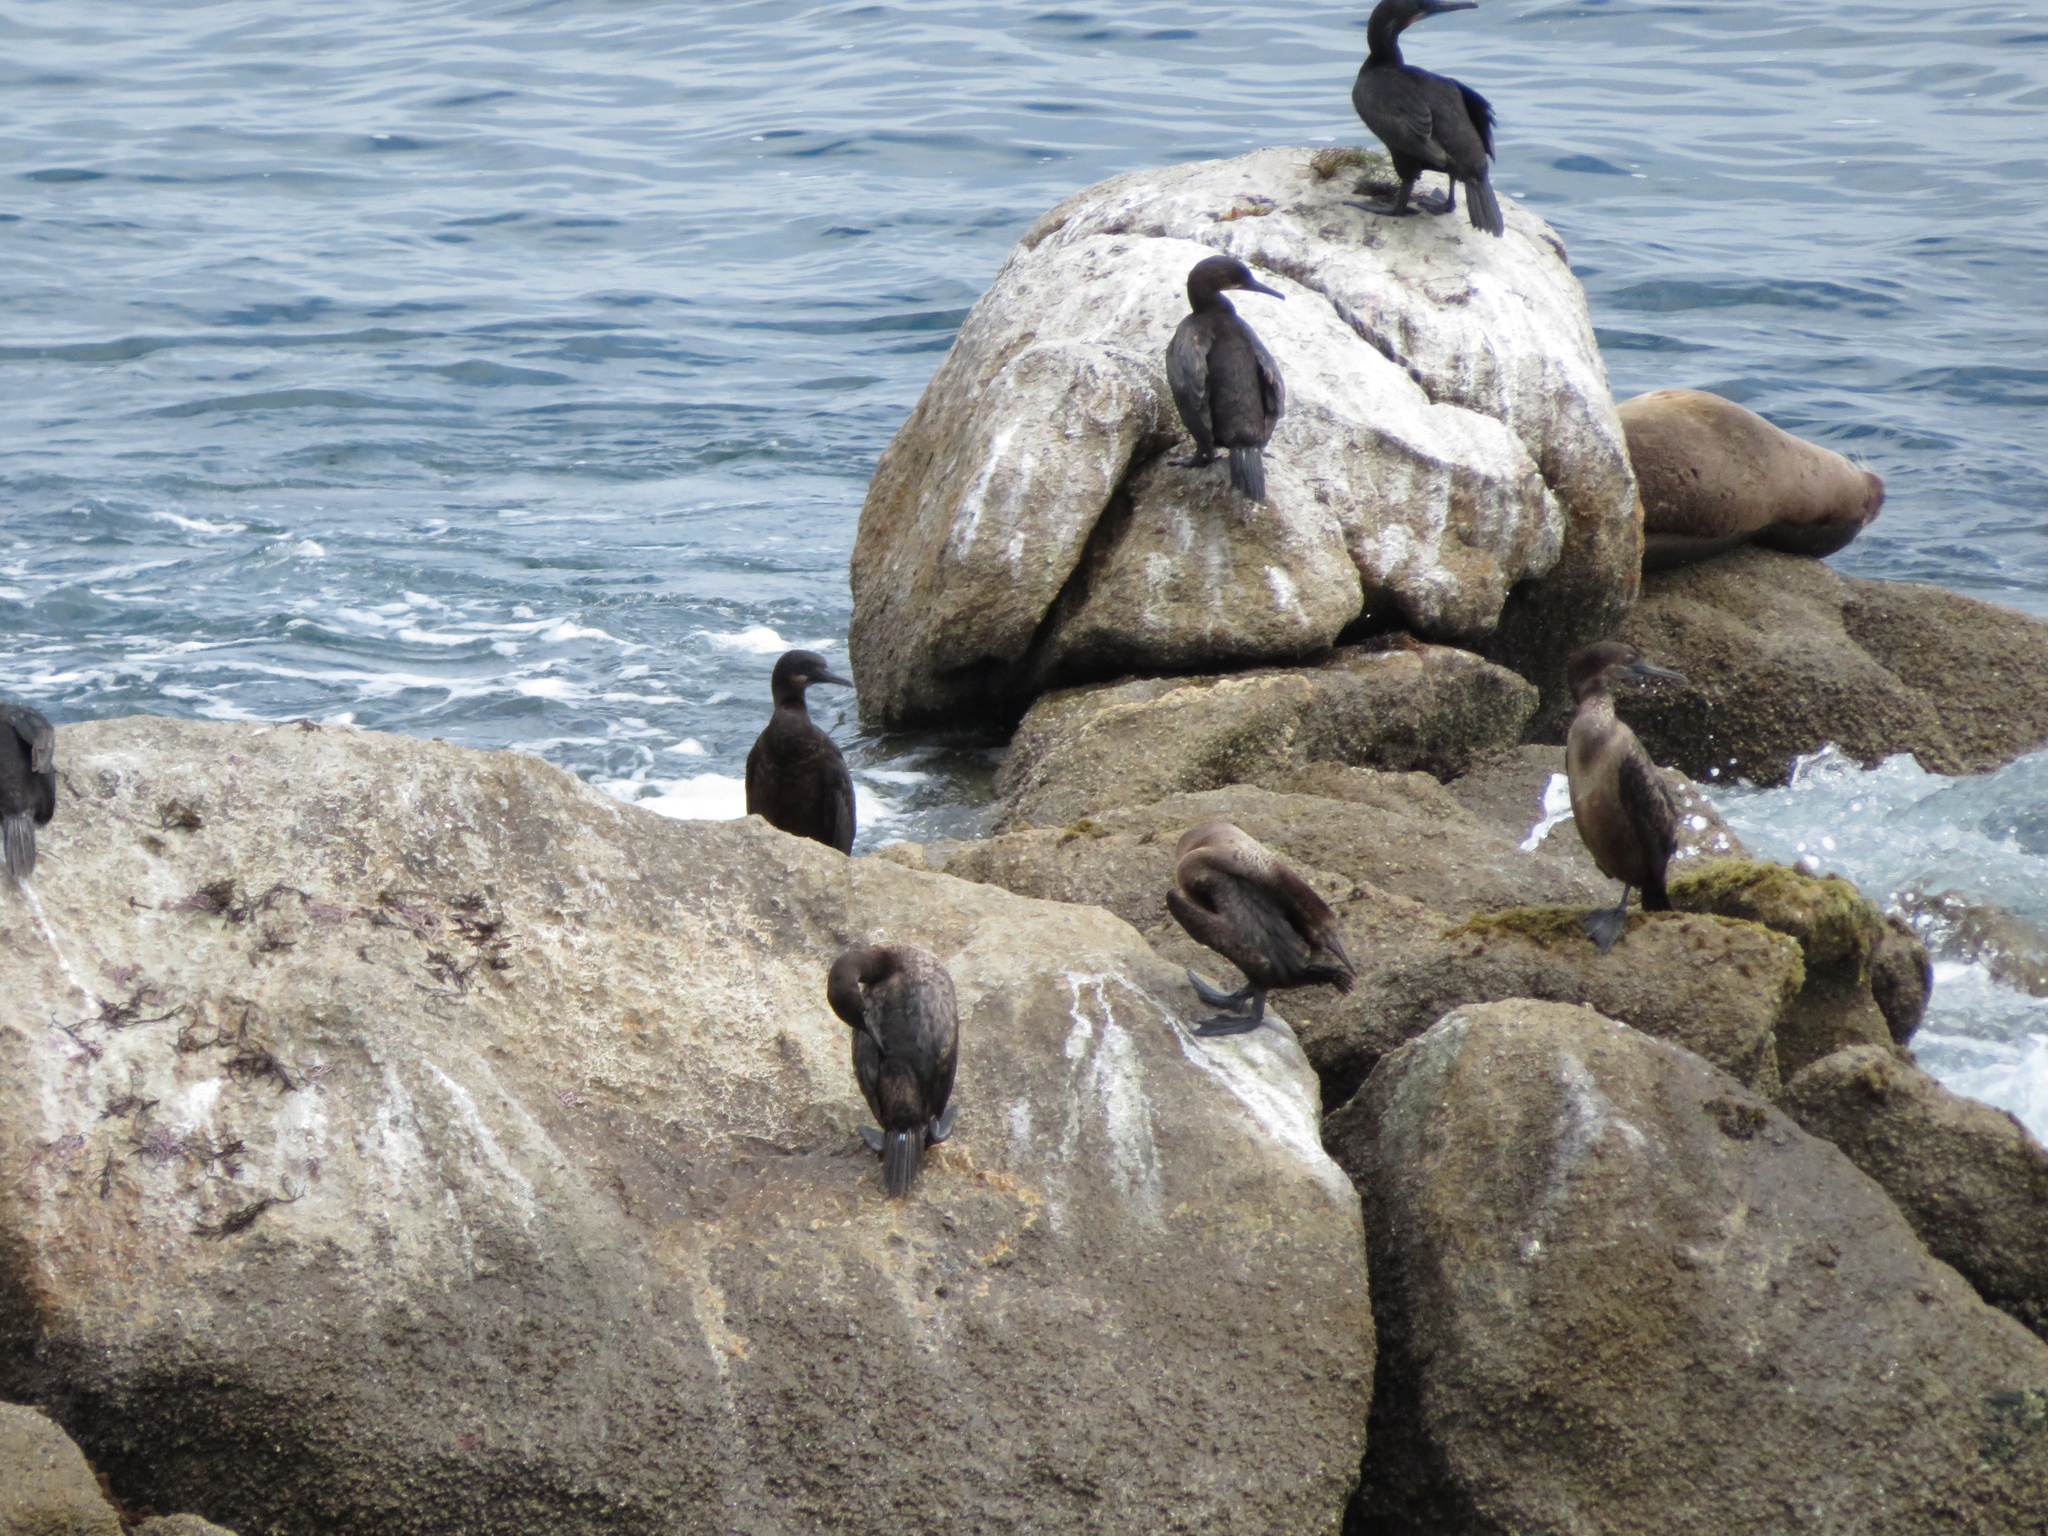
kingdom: Animalia
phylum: Chordata
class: Aves
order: Suliformes
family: Phalacrocoracidae
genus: Urile
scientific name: Urile penicillatus
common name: Brandt's cormorant
